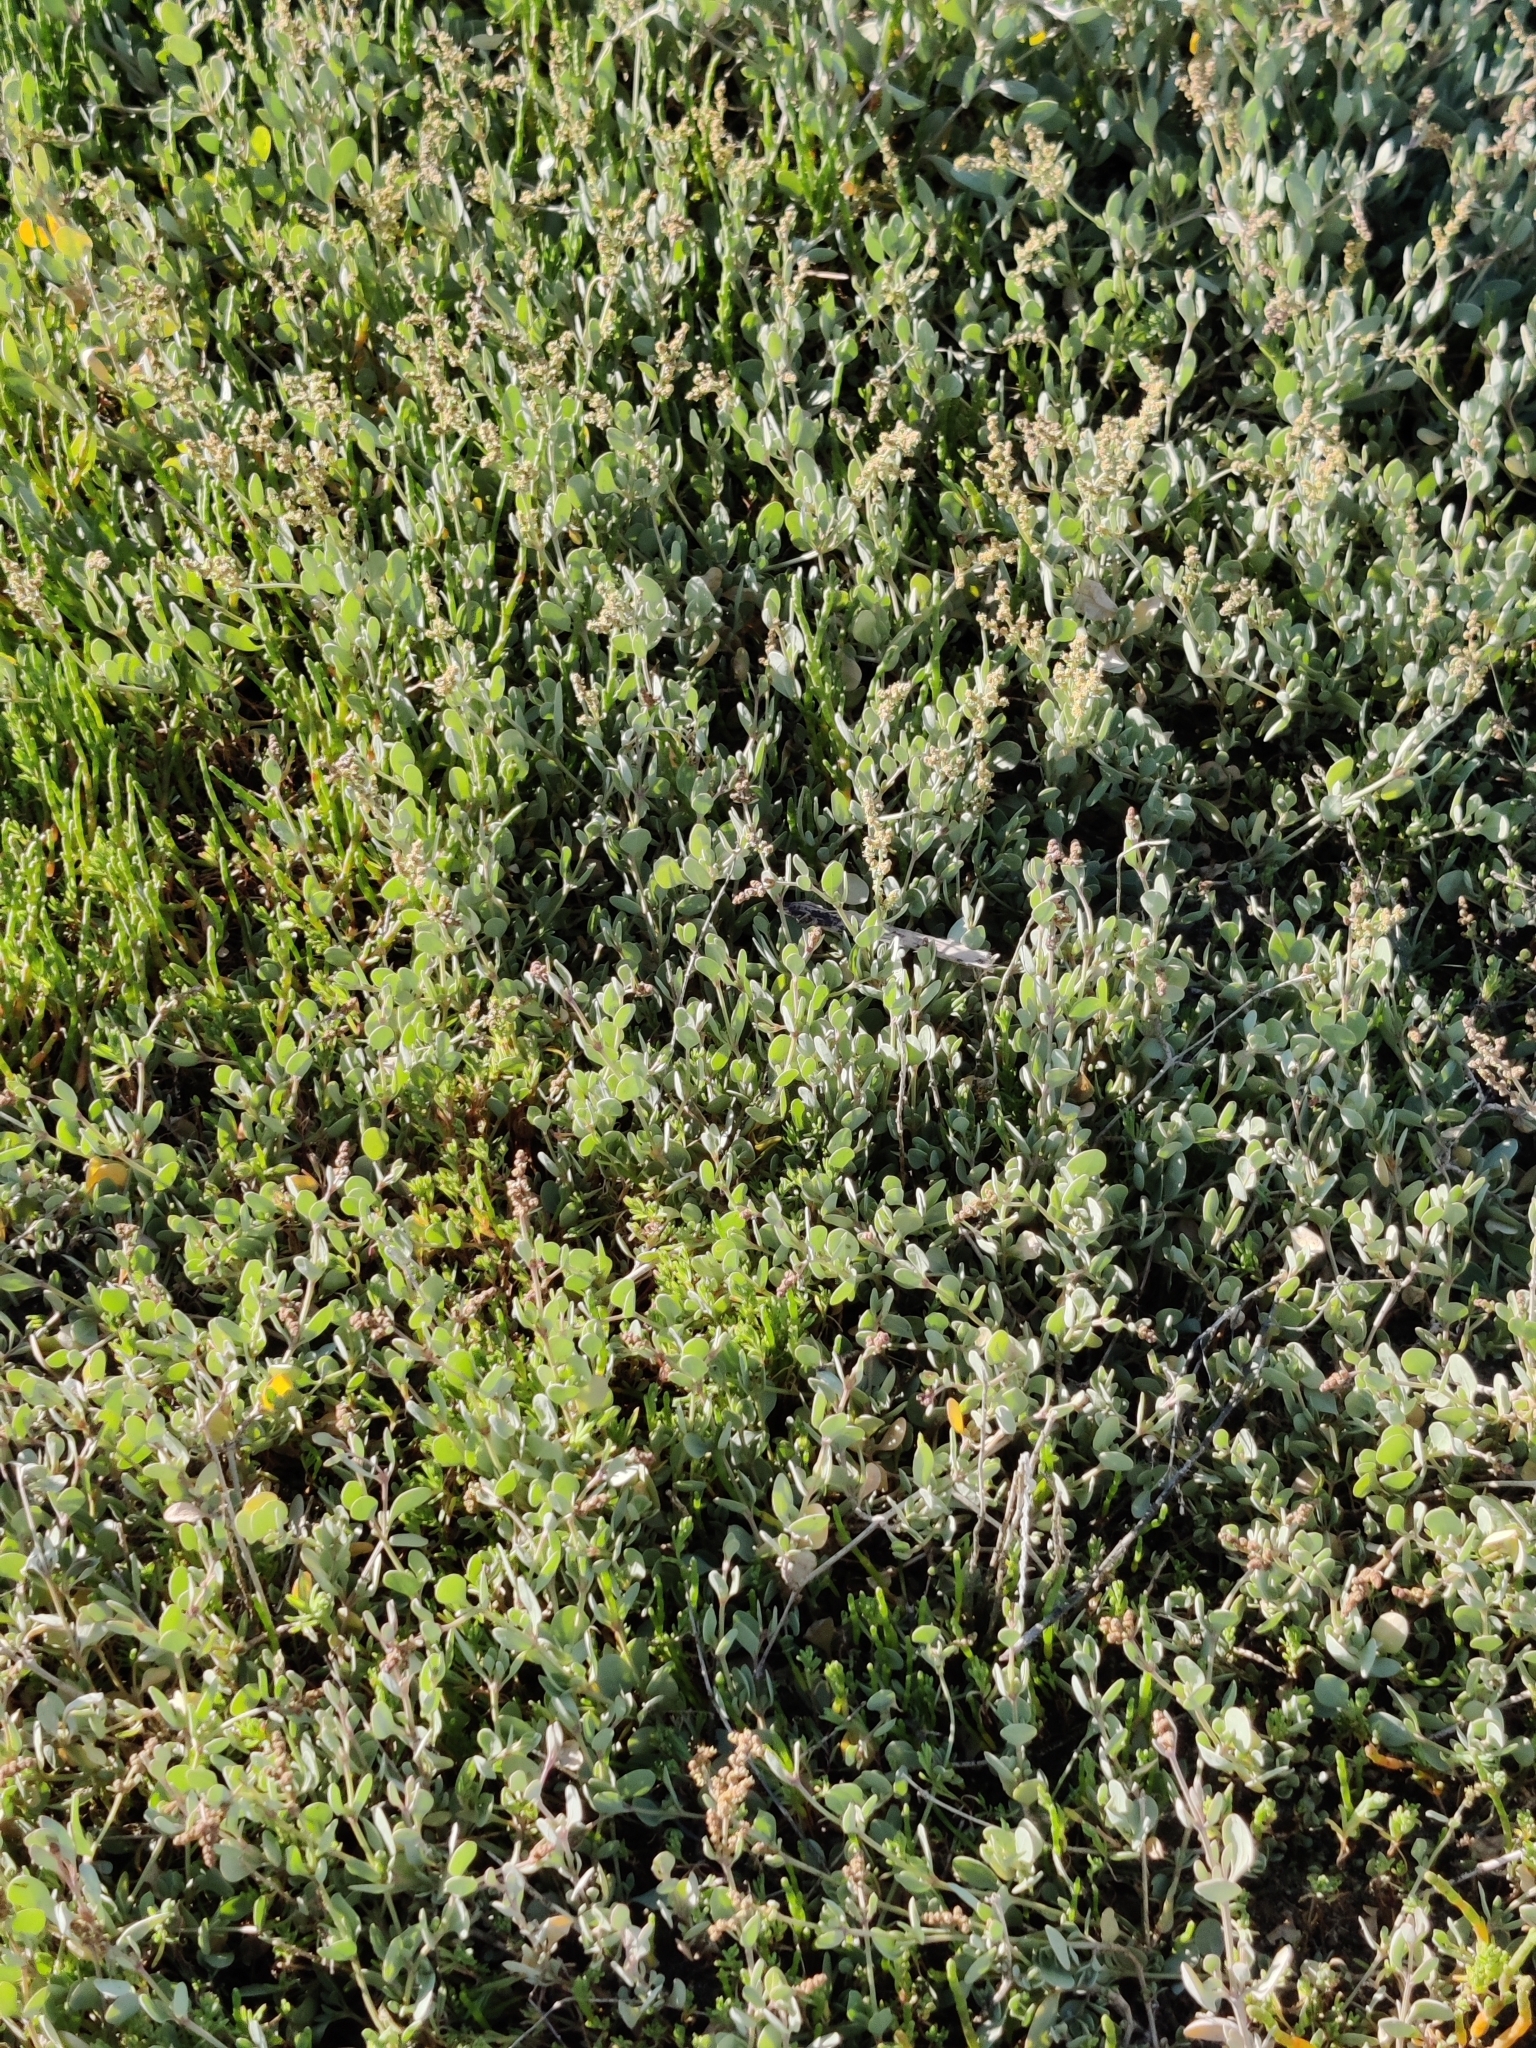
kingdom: Plantae
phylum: Tracheophyta
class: Magnoliopsida
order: Caryophyllales
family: Amaranthaceae
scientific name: Amaranthaceae
